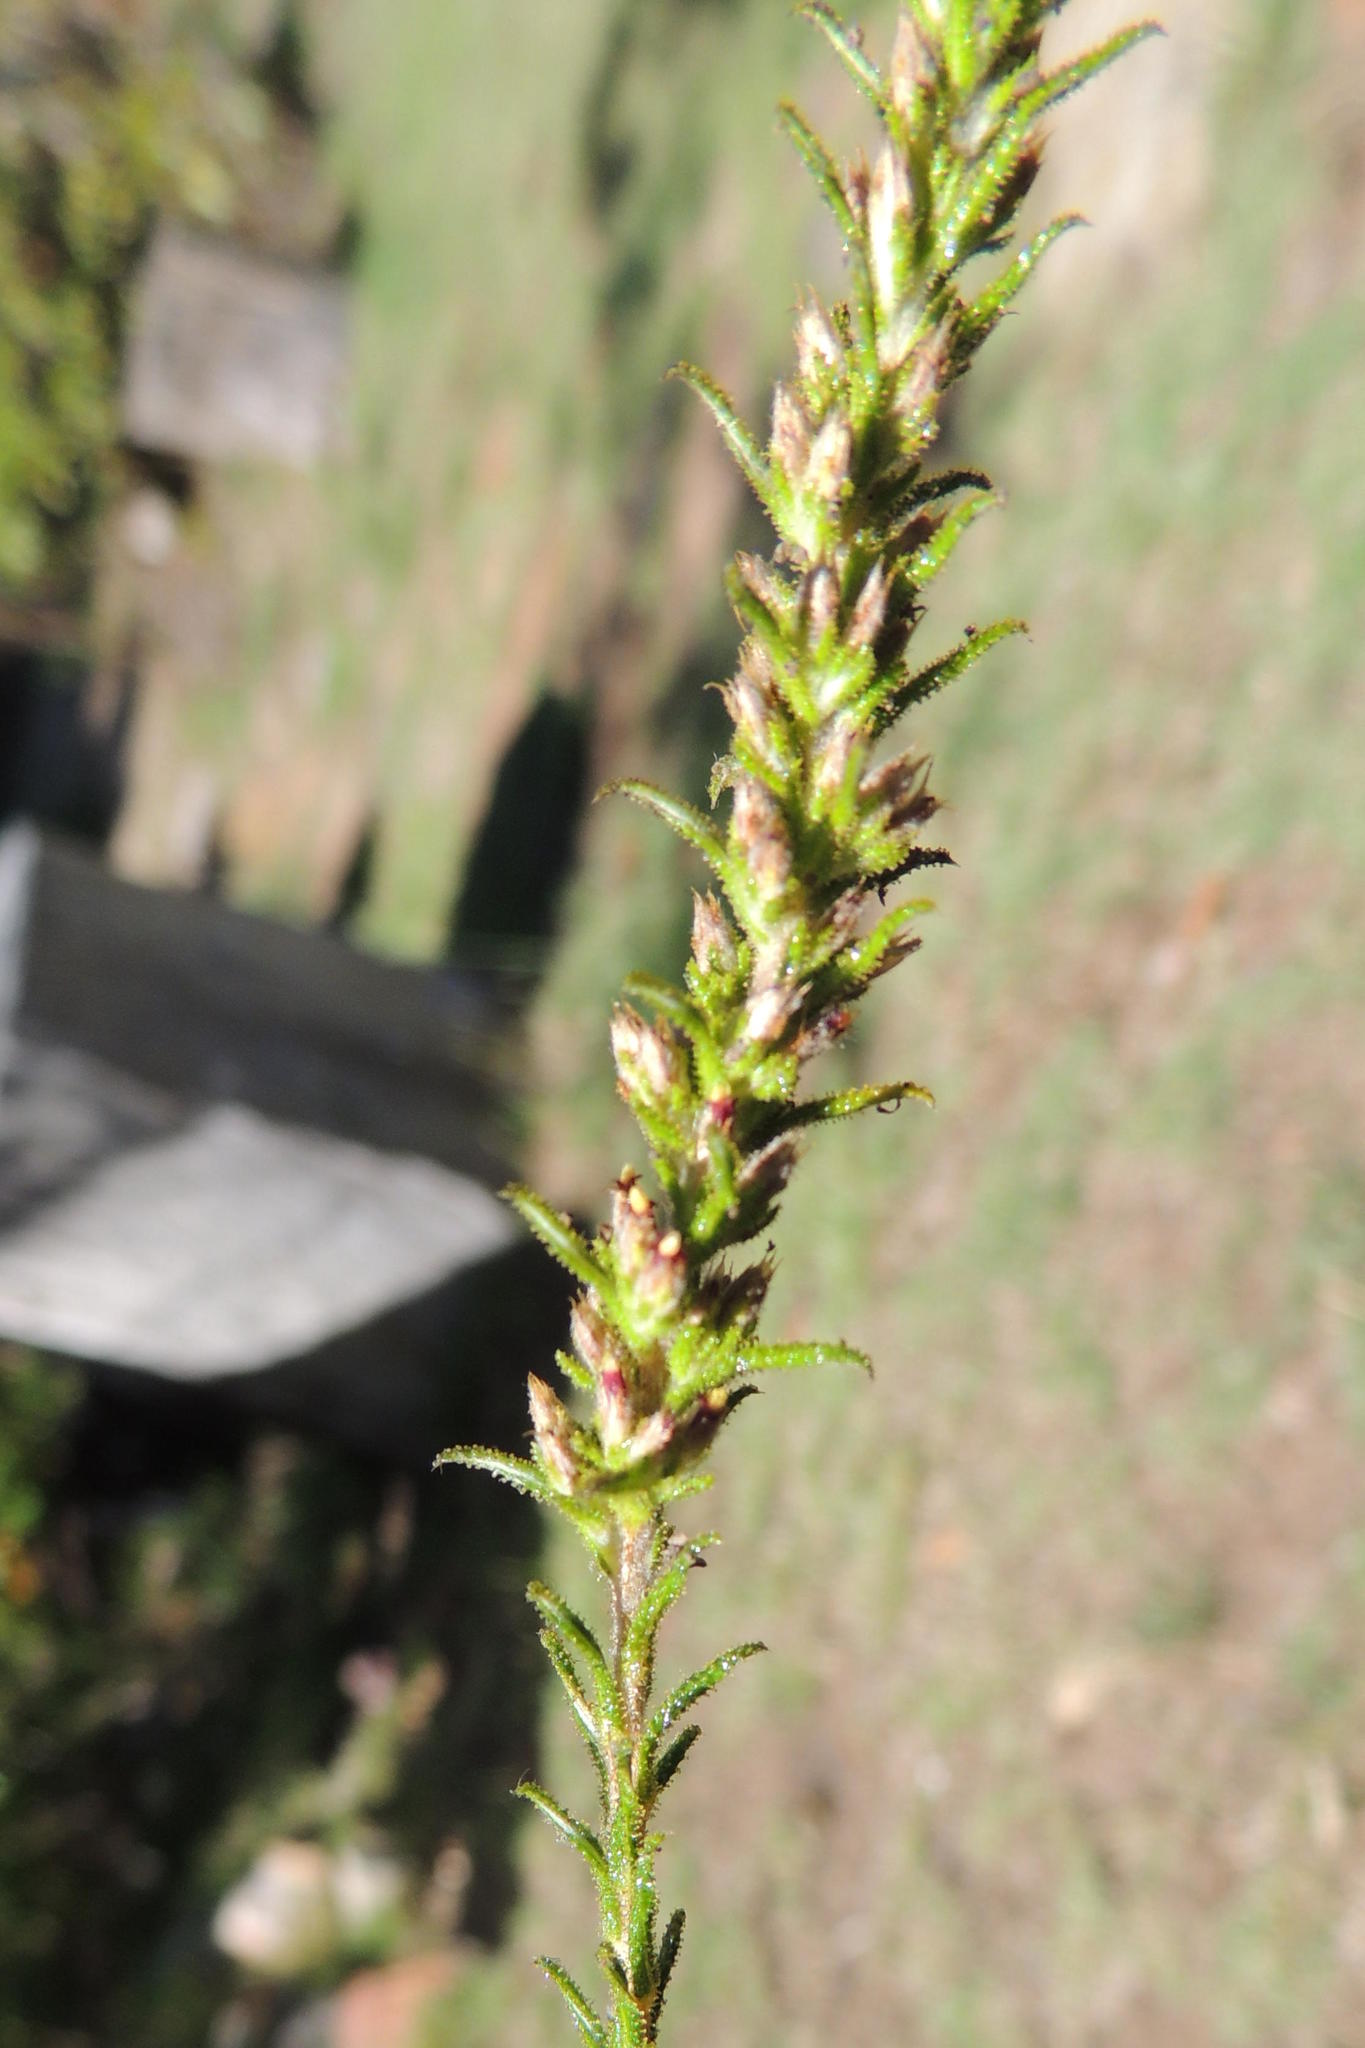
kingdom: Plantae
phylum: Tracheophyta
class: Magnoliopsida
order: Asterales
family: Asteraceae
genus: Myrovernix
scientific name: Myrovernix glandulosus
